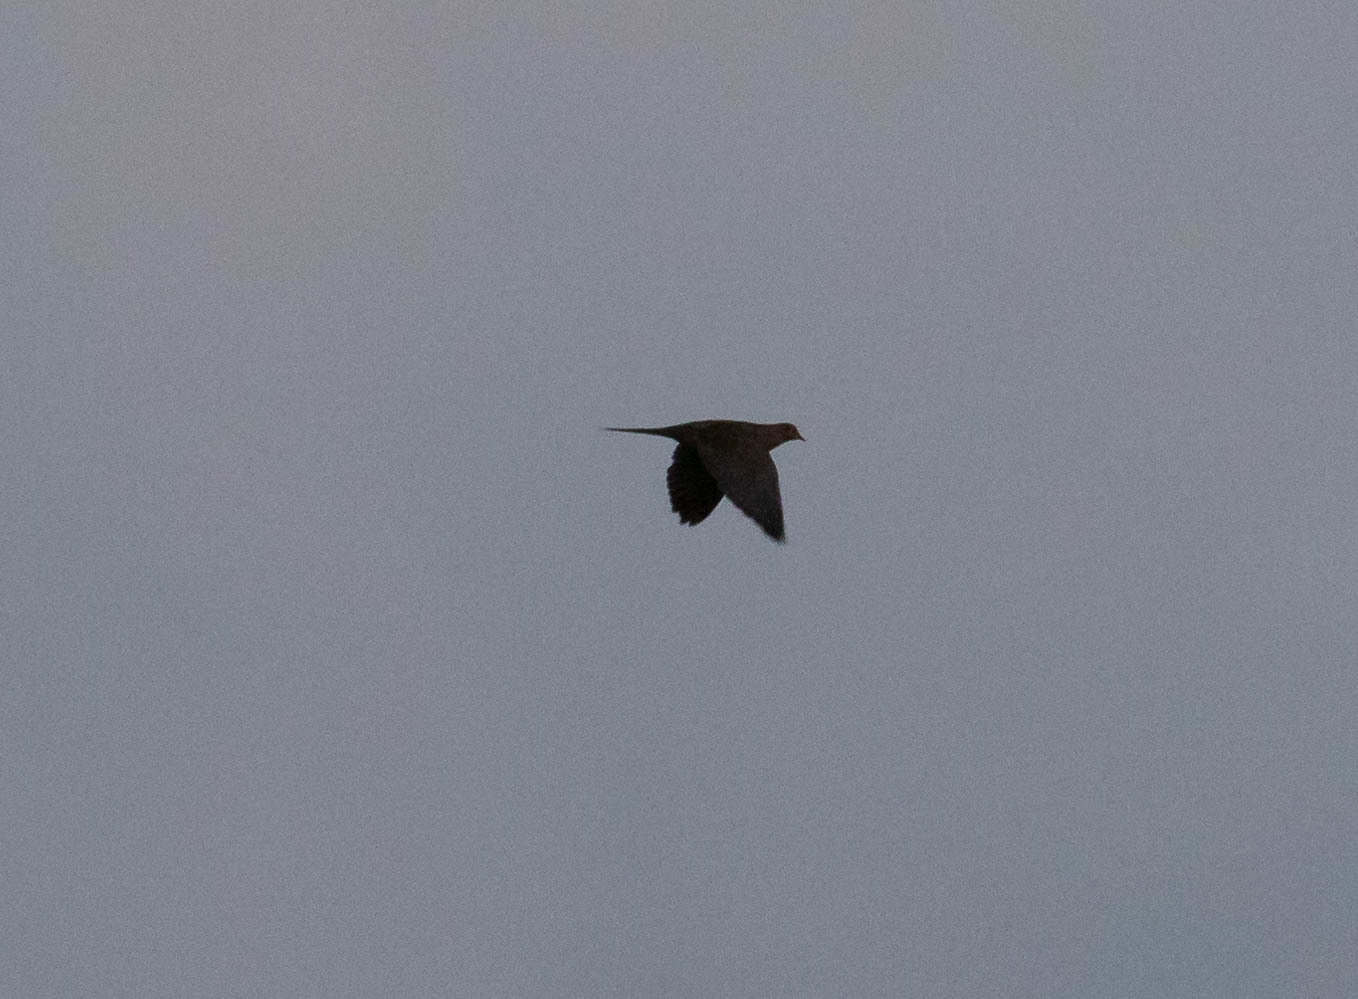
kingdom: Animalia
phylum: Chordata
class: Aves
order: Columbiformes
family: Columbidae
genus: Zenaida
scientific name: Zenaida macroura
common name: Mourning dove
